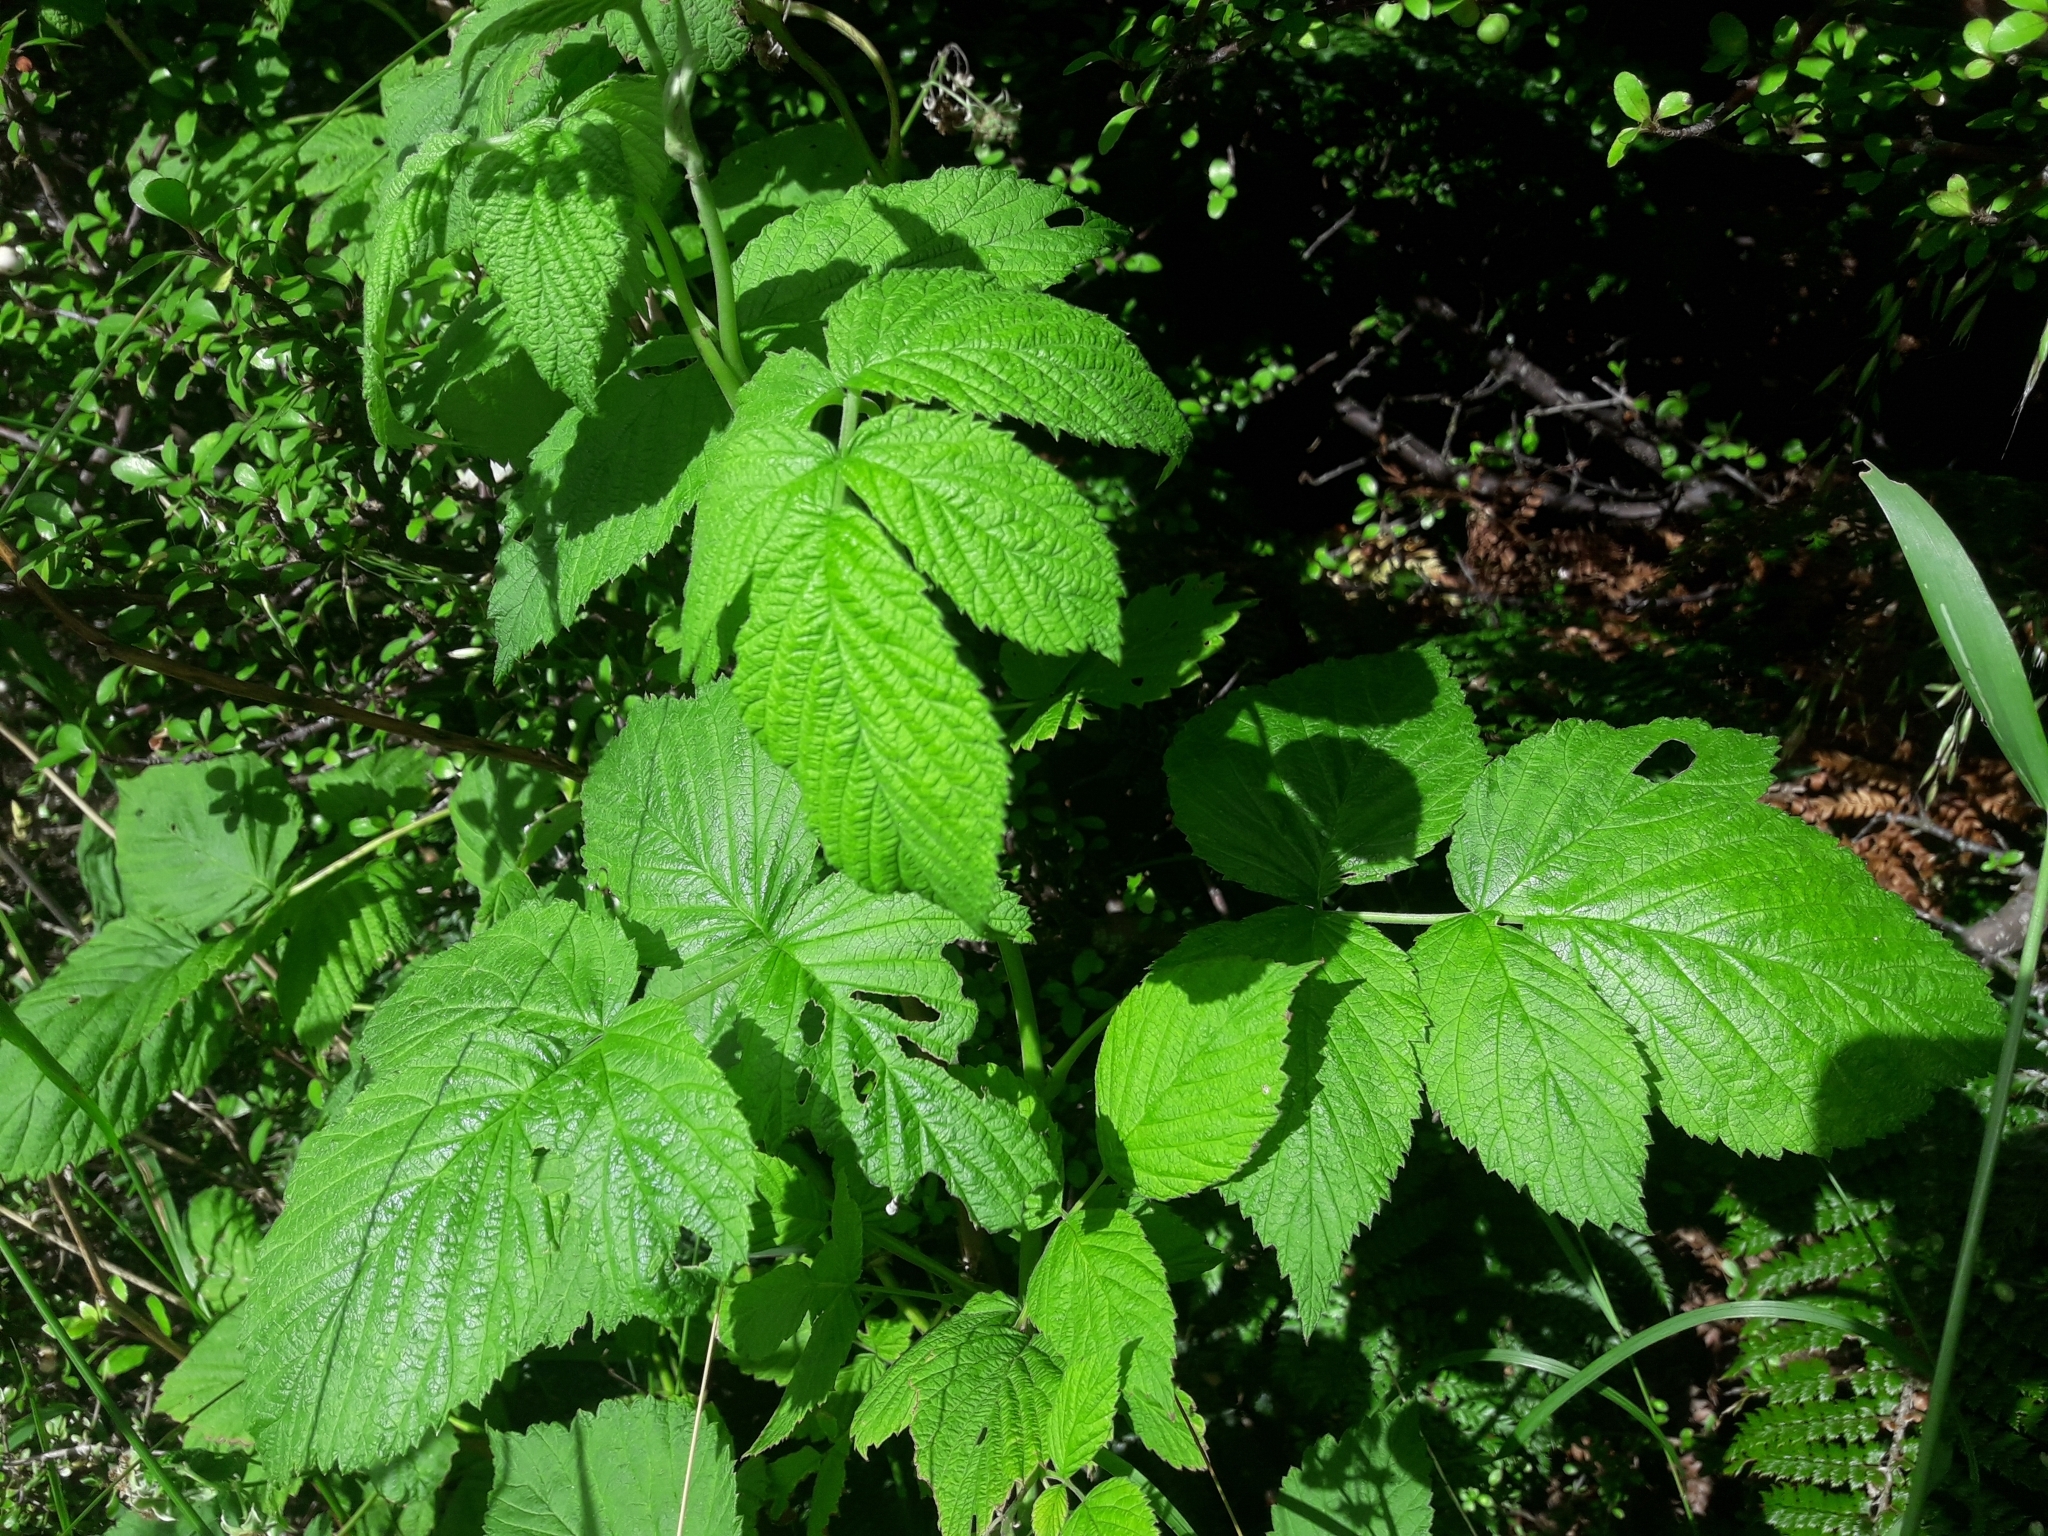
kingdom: Plantae
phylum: Tracheophyta
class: Magnoliopsida
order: Rosales
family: Rosaceae
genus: Rubus
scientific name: Rubus idaeus
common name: Raspberry
